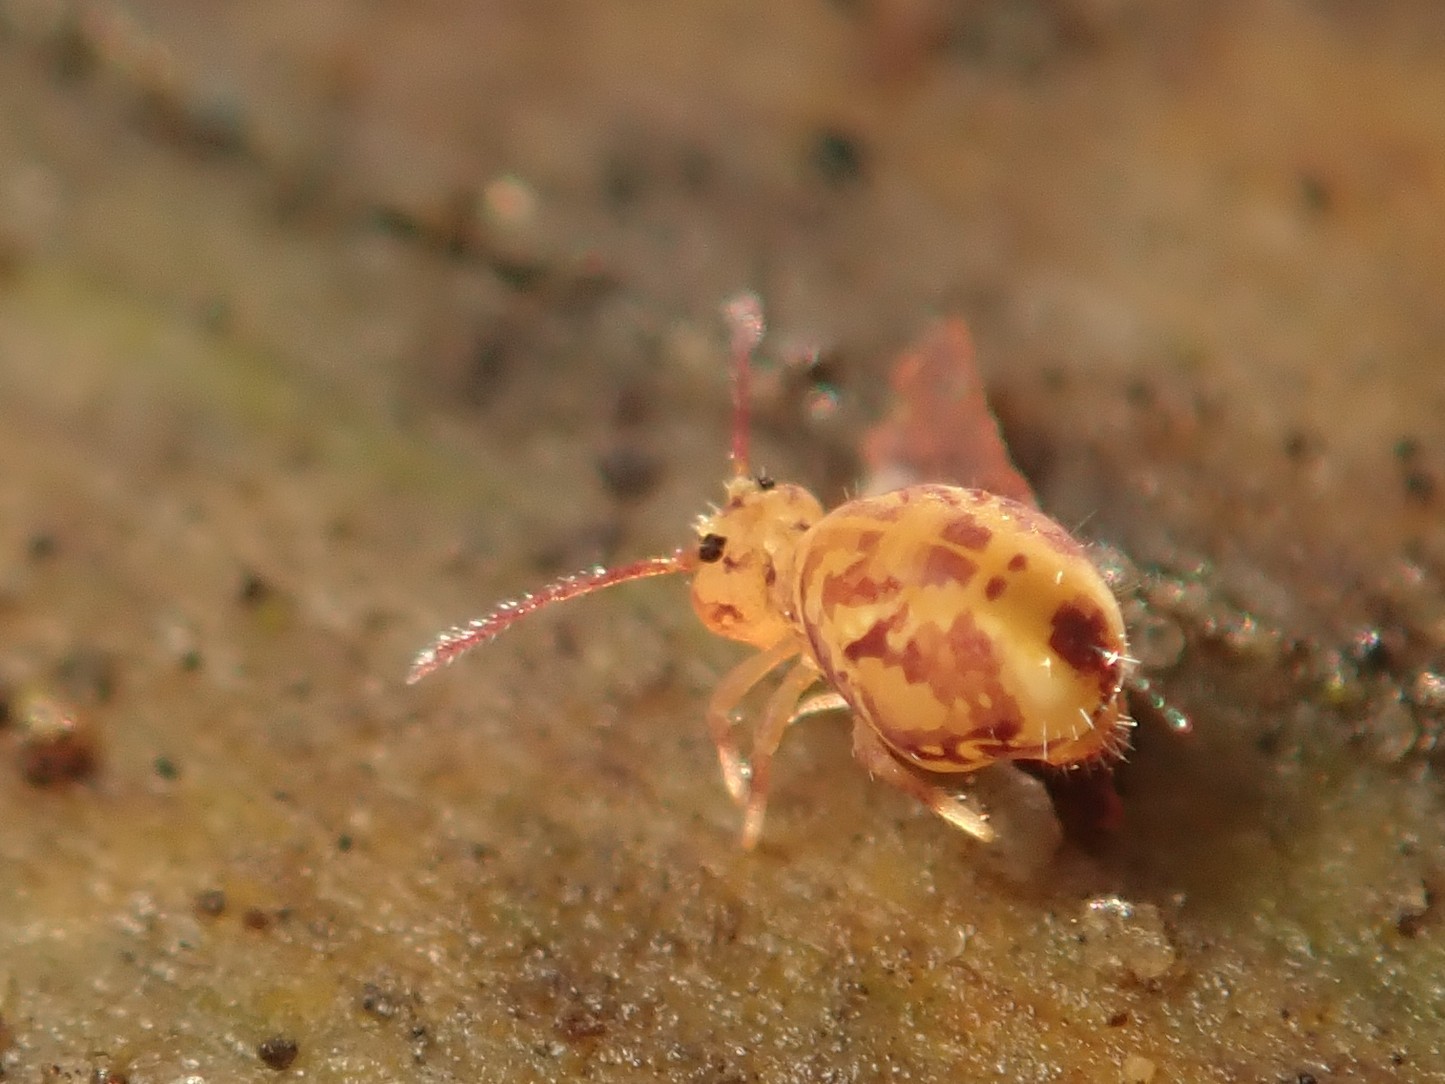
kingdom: Animalia
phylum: Arthropoda
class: Collembola
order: Symphypleona
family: Dicyrtomidae
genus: Dicyrtomina
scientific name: Dicyrtomina ornata
